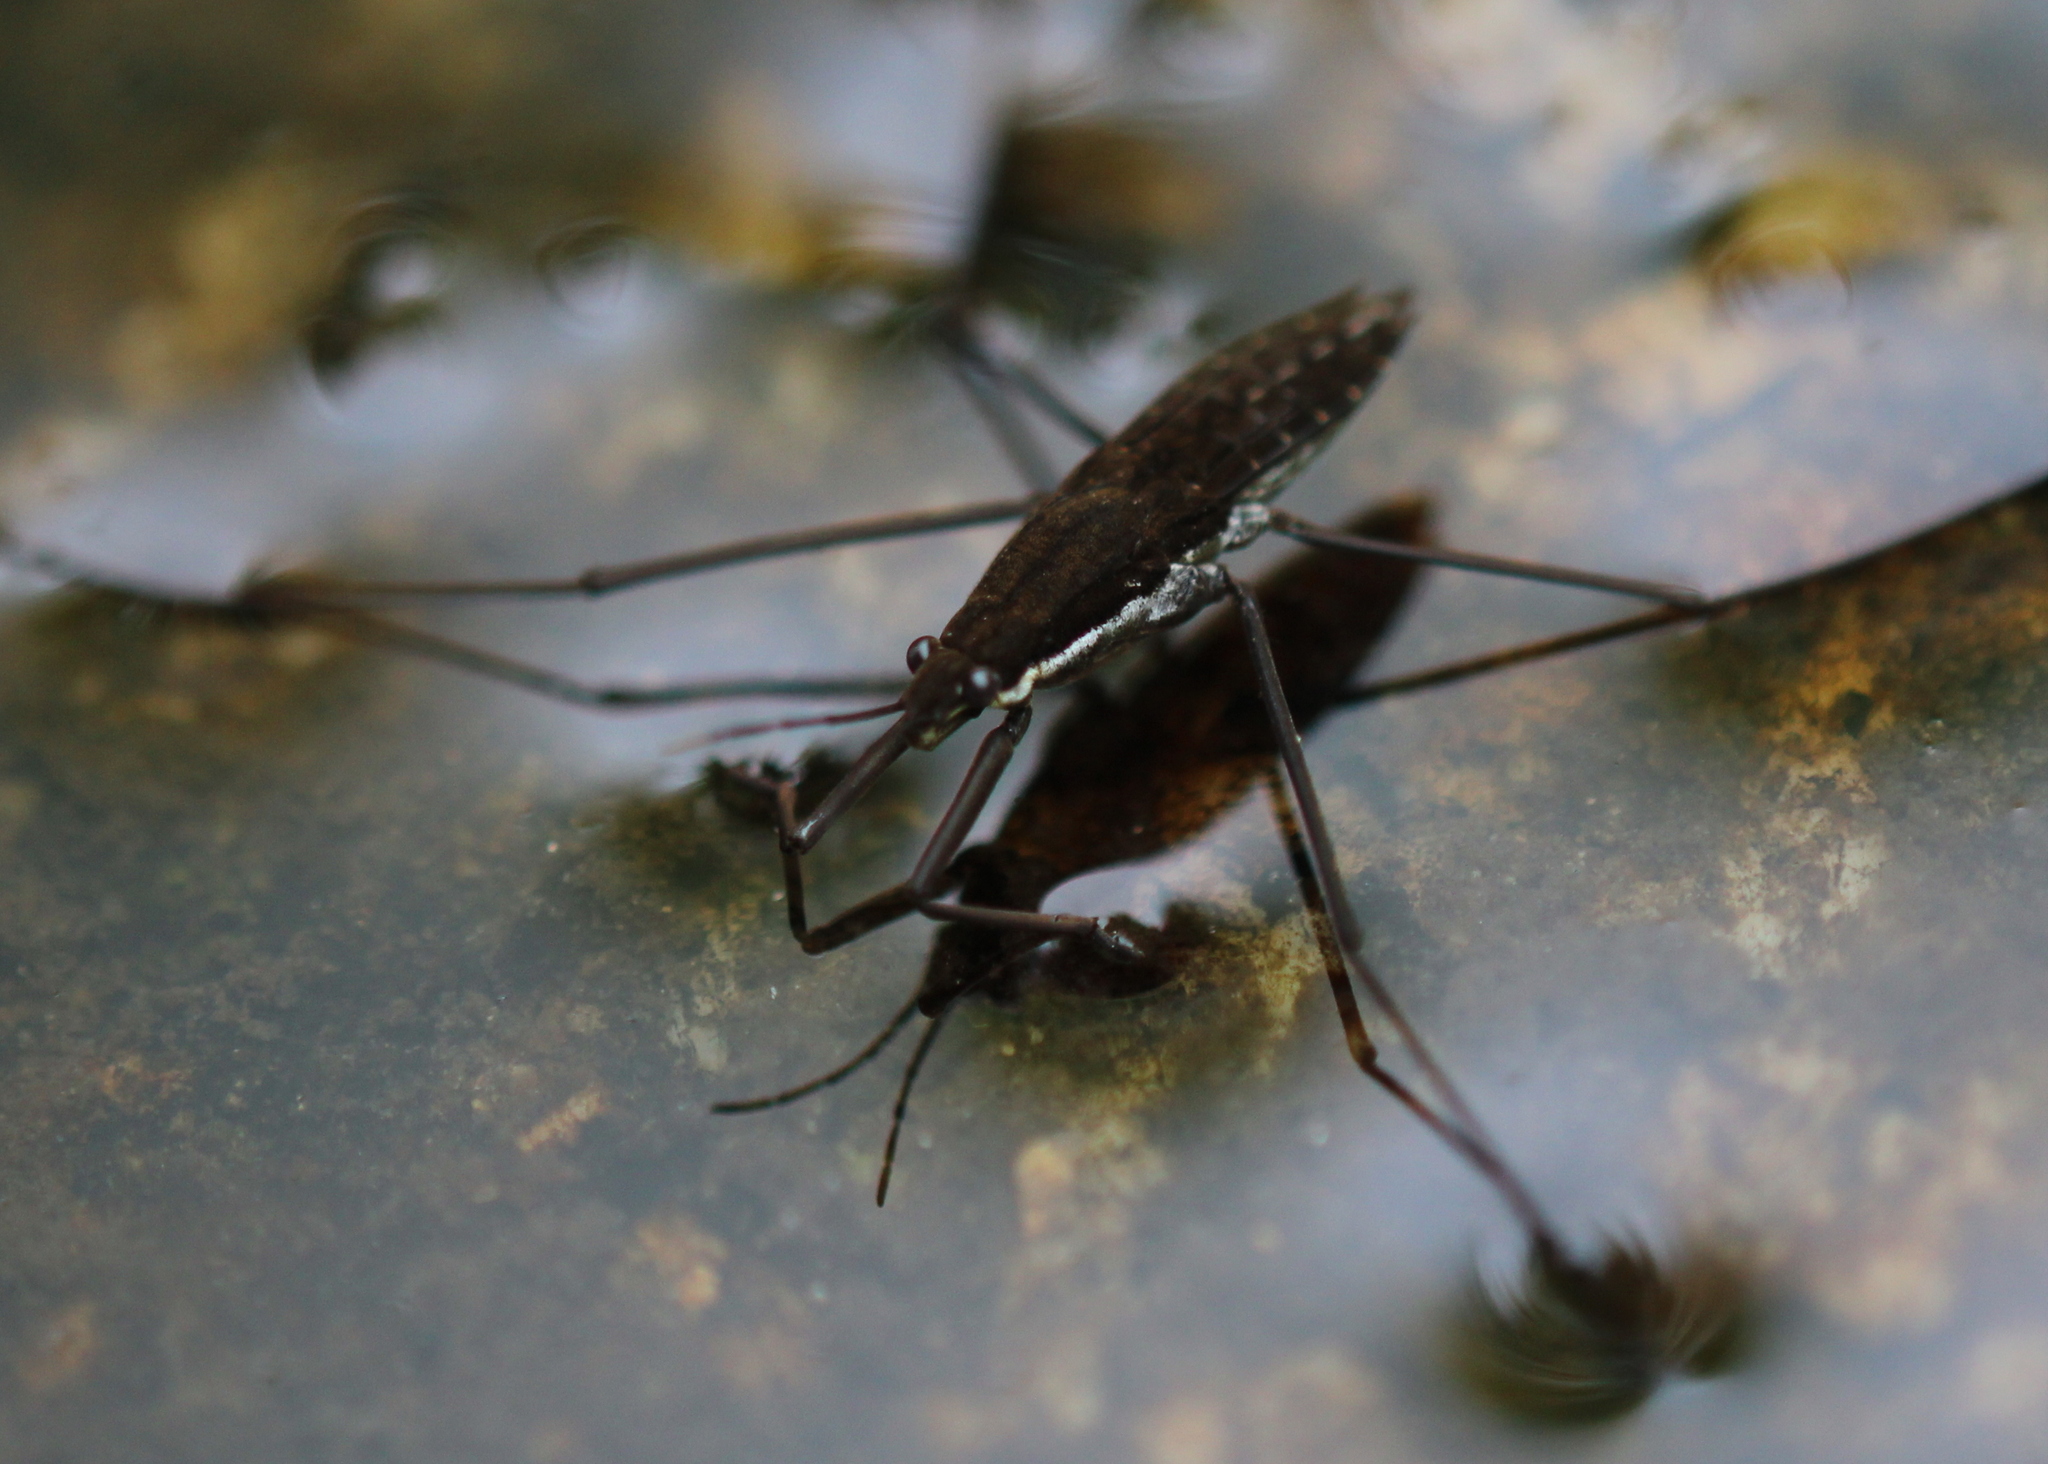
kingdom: Animalia
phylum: Arthropoda
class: Insecta
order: Hemiptera
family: Gerridae
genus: Aquarius
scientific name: Aquarius remigis
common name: Common water strider
